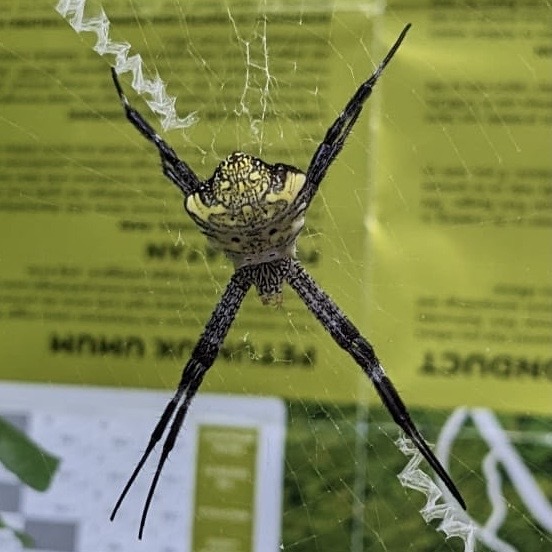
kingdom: Animalia
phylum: Arthropoda
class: Arachnida
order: Araneae
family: Araneidae
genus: Argiope
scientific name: Argiope appensa
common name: Garden spider
